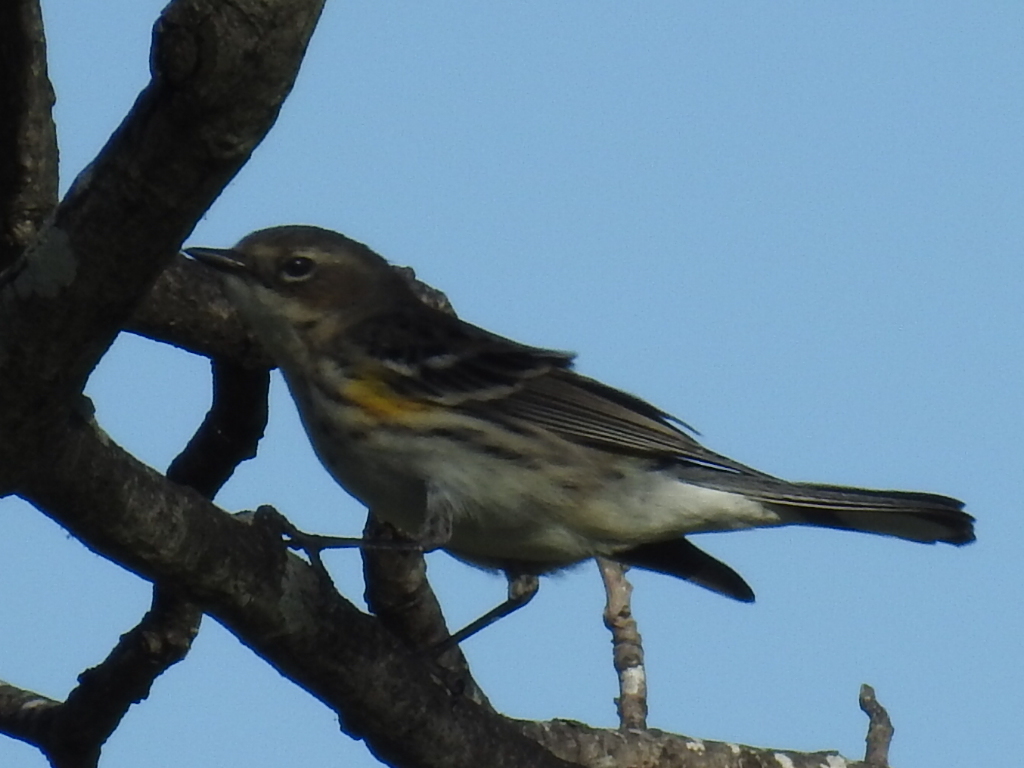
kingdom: Animalia
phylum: Chordata
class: Aves
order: Passeriformes
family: Parulidae
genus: Setophaga
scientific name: Setophaga coronata
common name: Myrtle warbler
